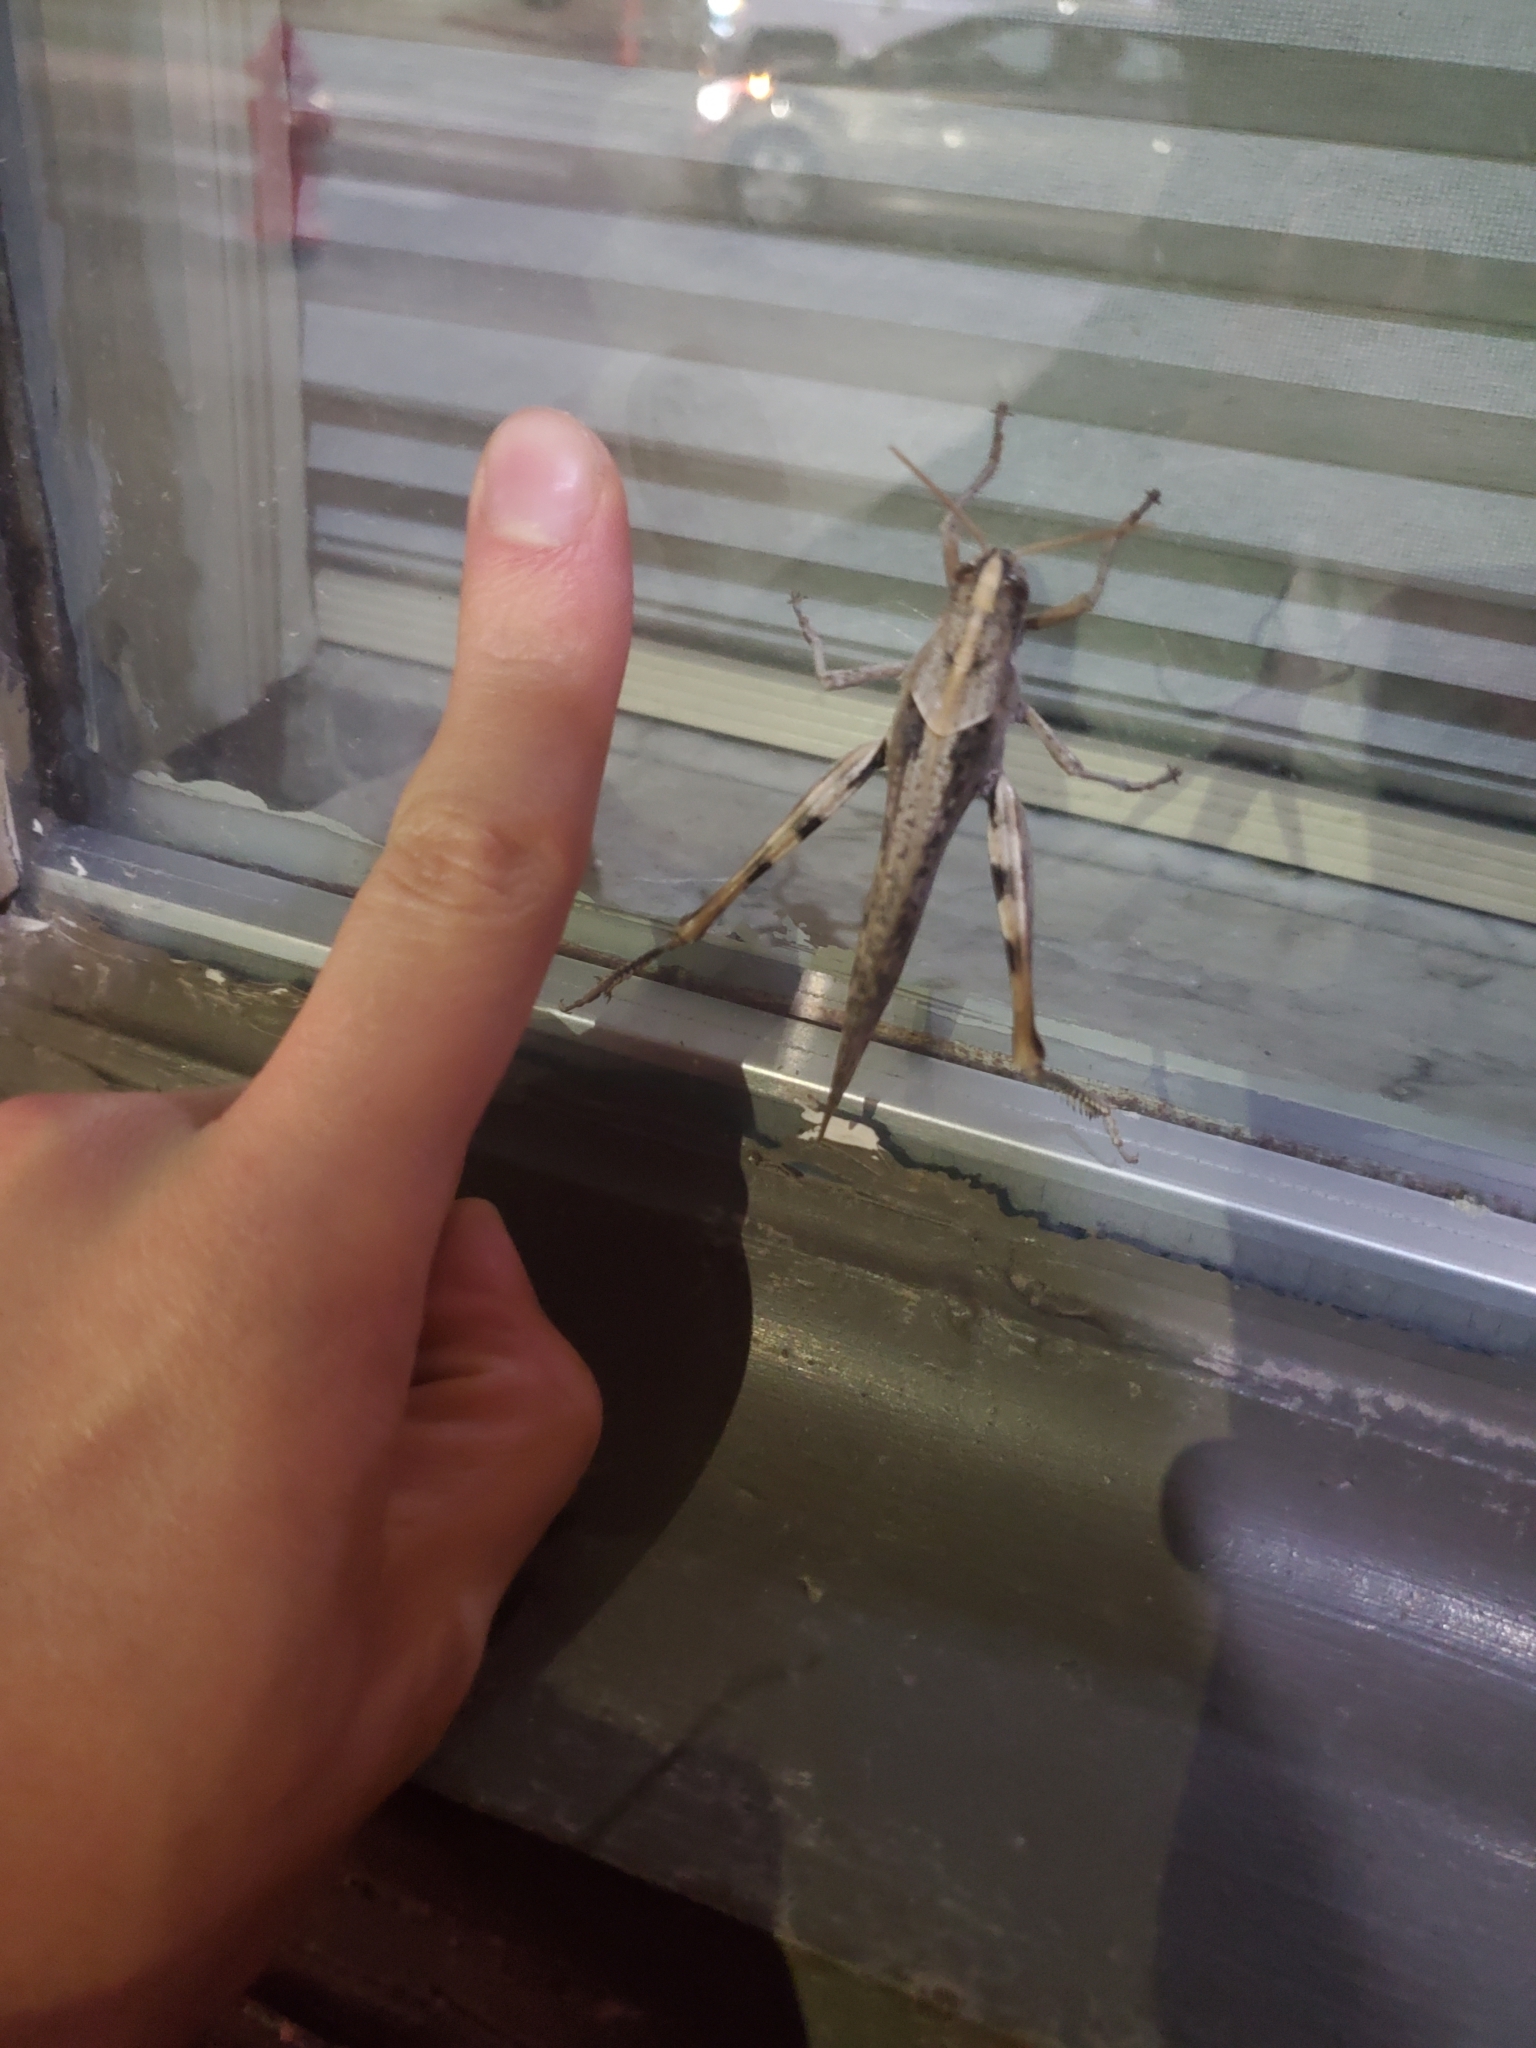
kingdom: Animalia
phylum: Arthropoda
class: Insecta
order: Orthoptera
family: Acrididae
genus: Schistocerca
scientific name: Schistocerca nitens
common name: Vagrant grasshopper
